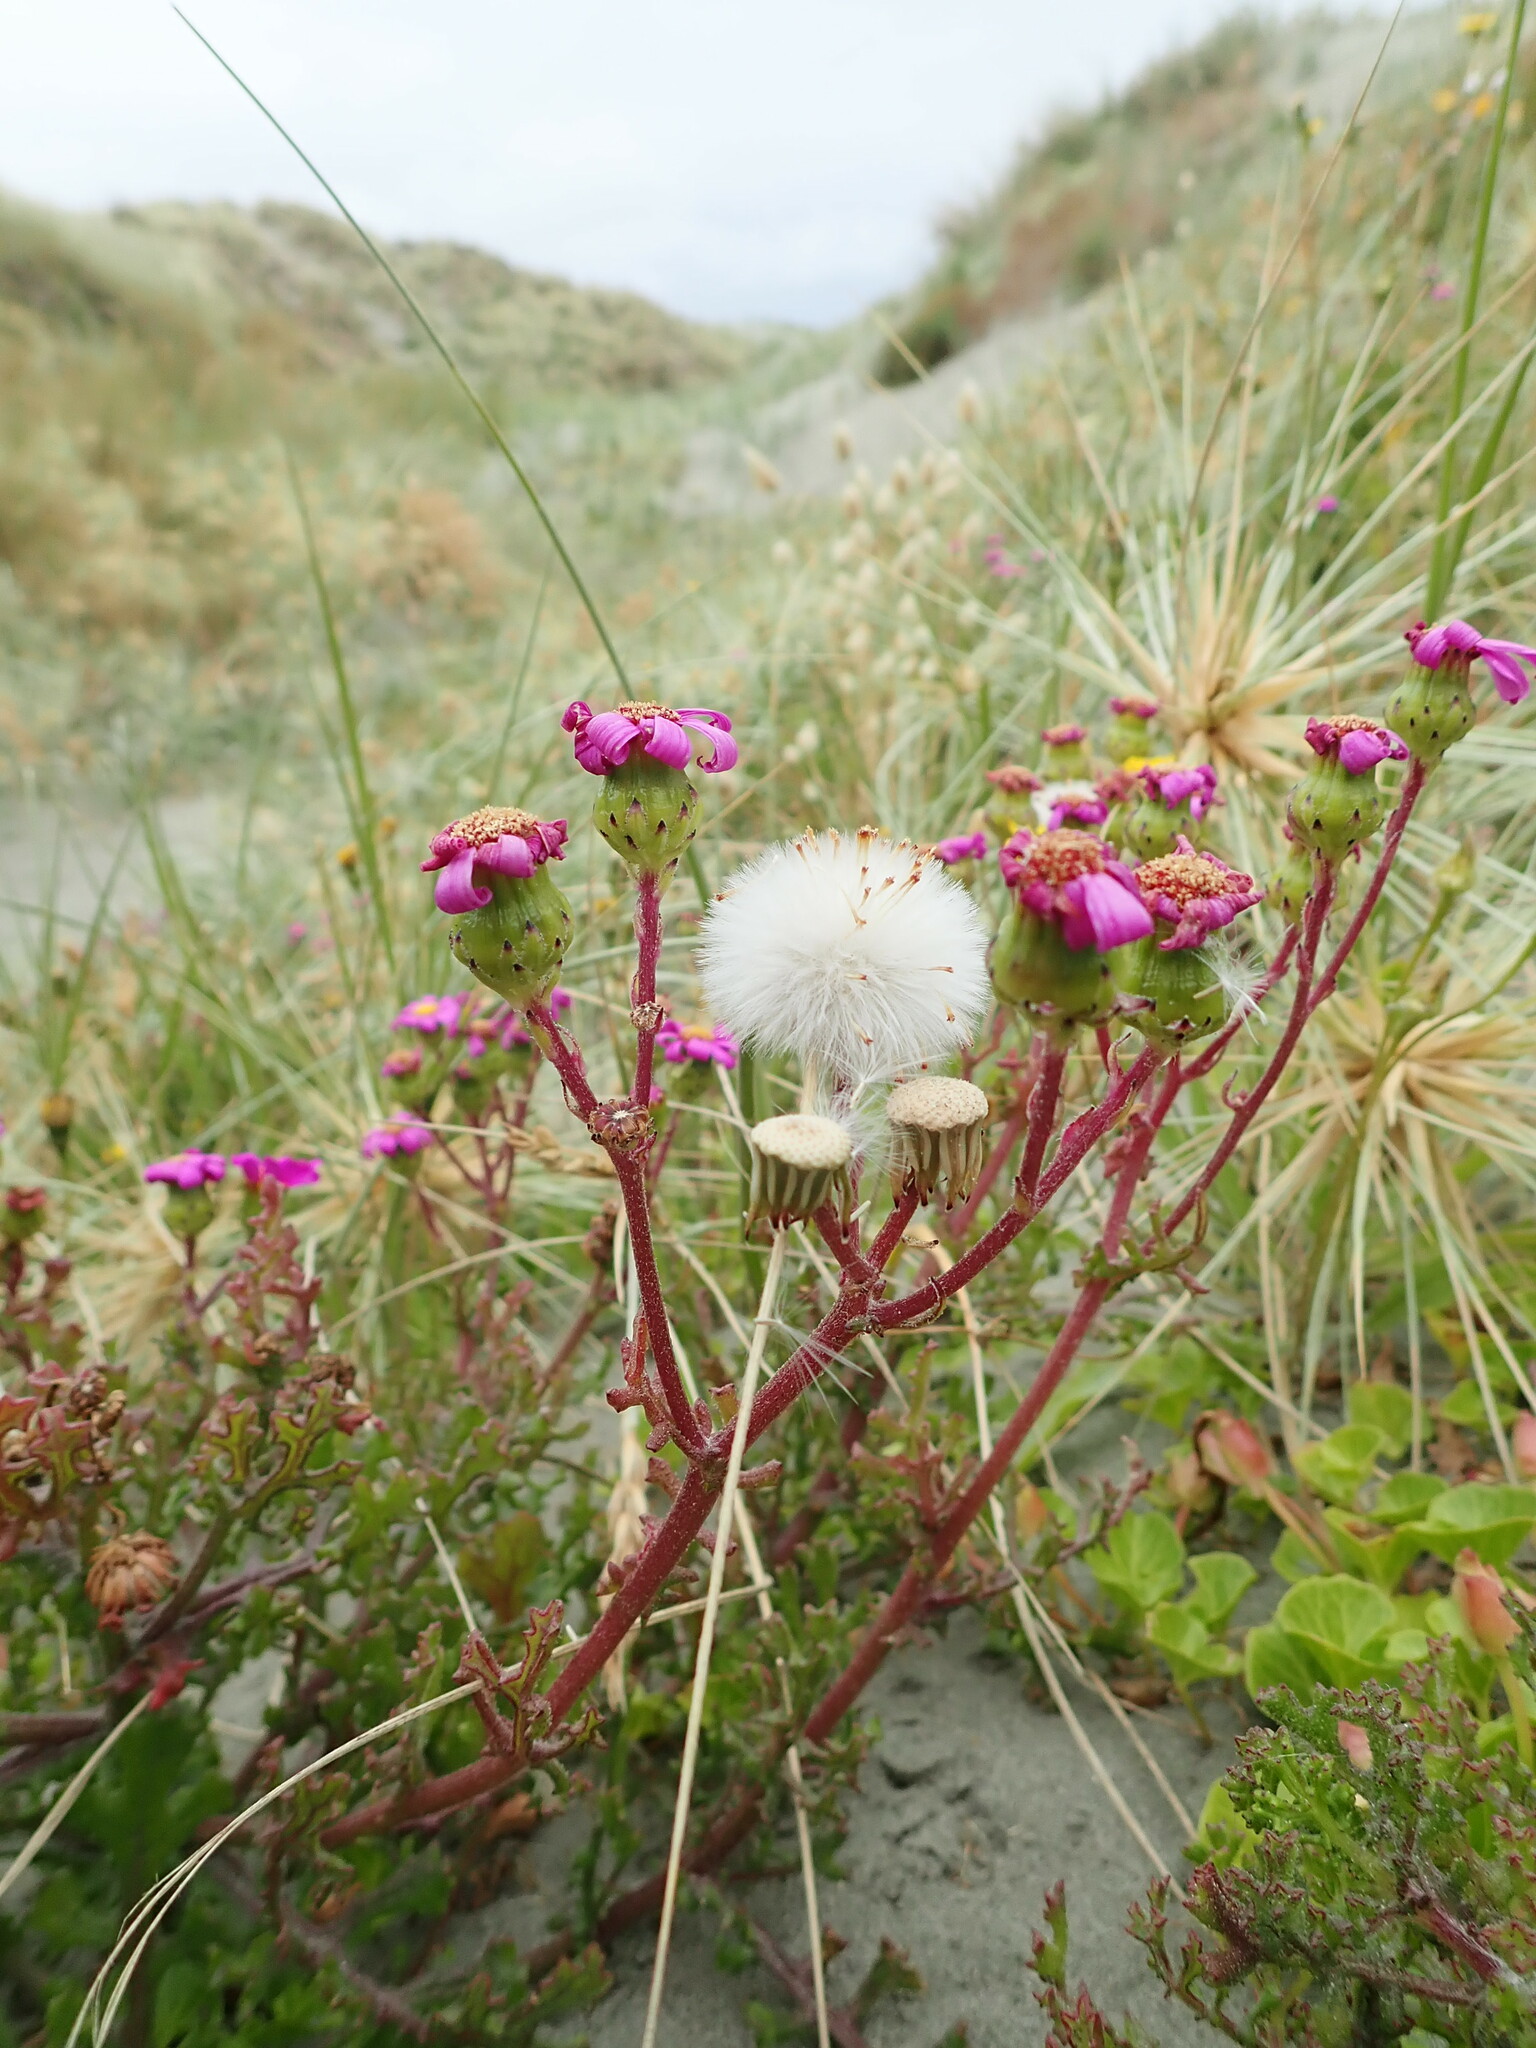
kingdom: Plantae
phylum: Tracheophyta
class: Magnoliopsida
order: Asterales
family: Asteraceae
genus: Senecio
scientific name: Senecio elegans
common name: Purple groundsel
